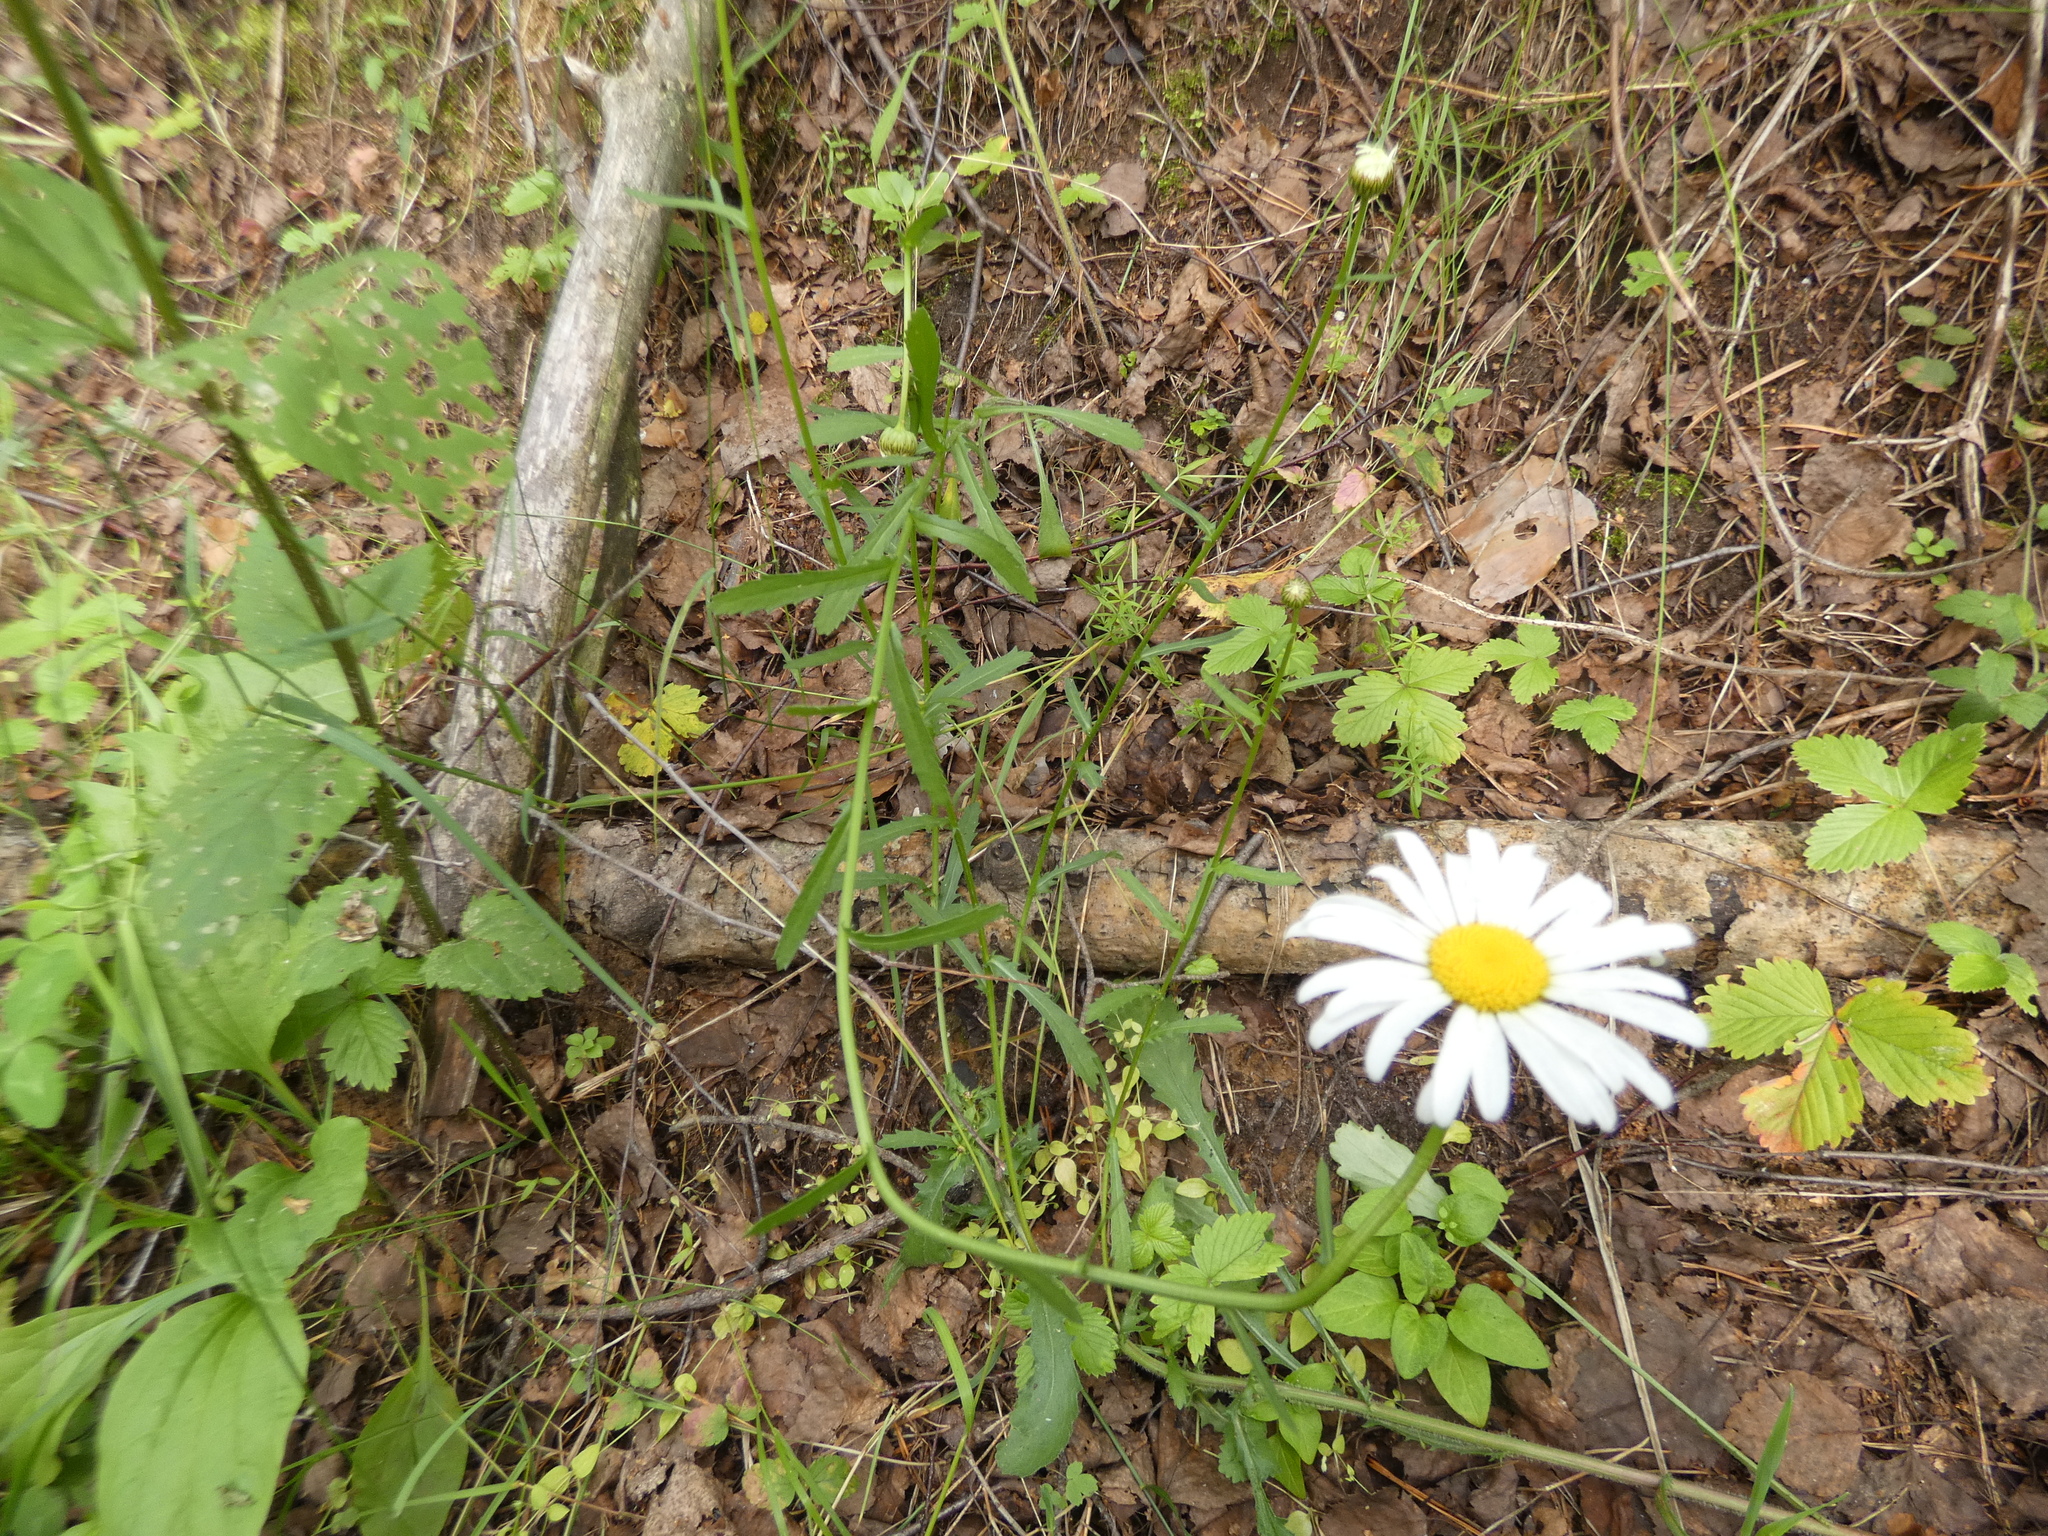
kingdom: Plantae
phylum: Tracheophyta
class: Magnoliopsida
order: Asterales
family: Asteraceae
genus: Leucanthemum
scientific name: Leucanthemum vulgare
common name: Oxeye daisy
